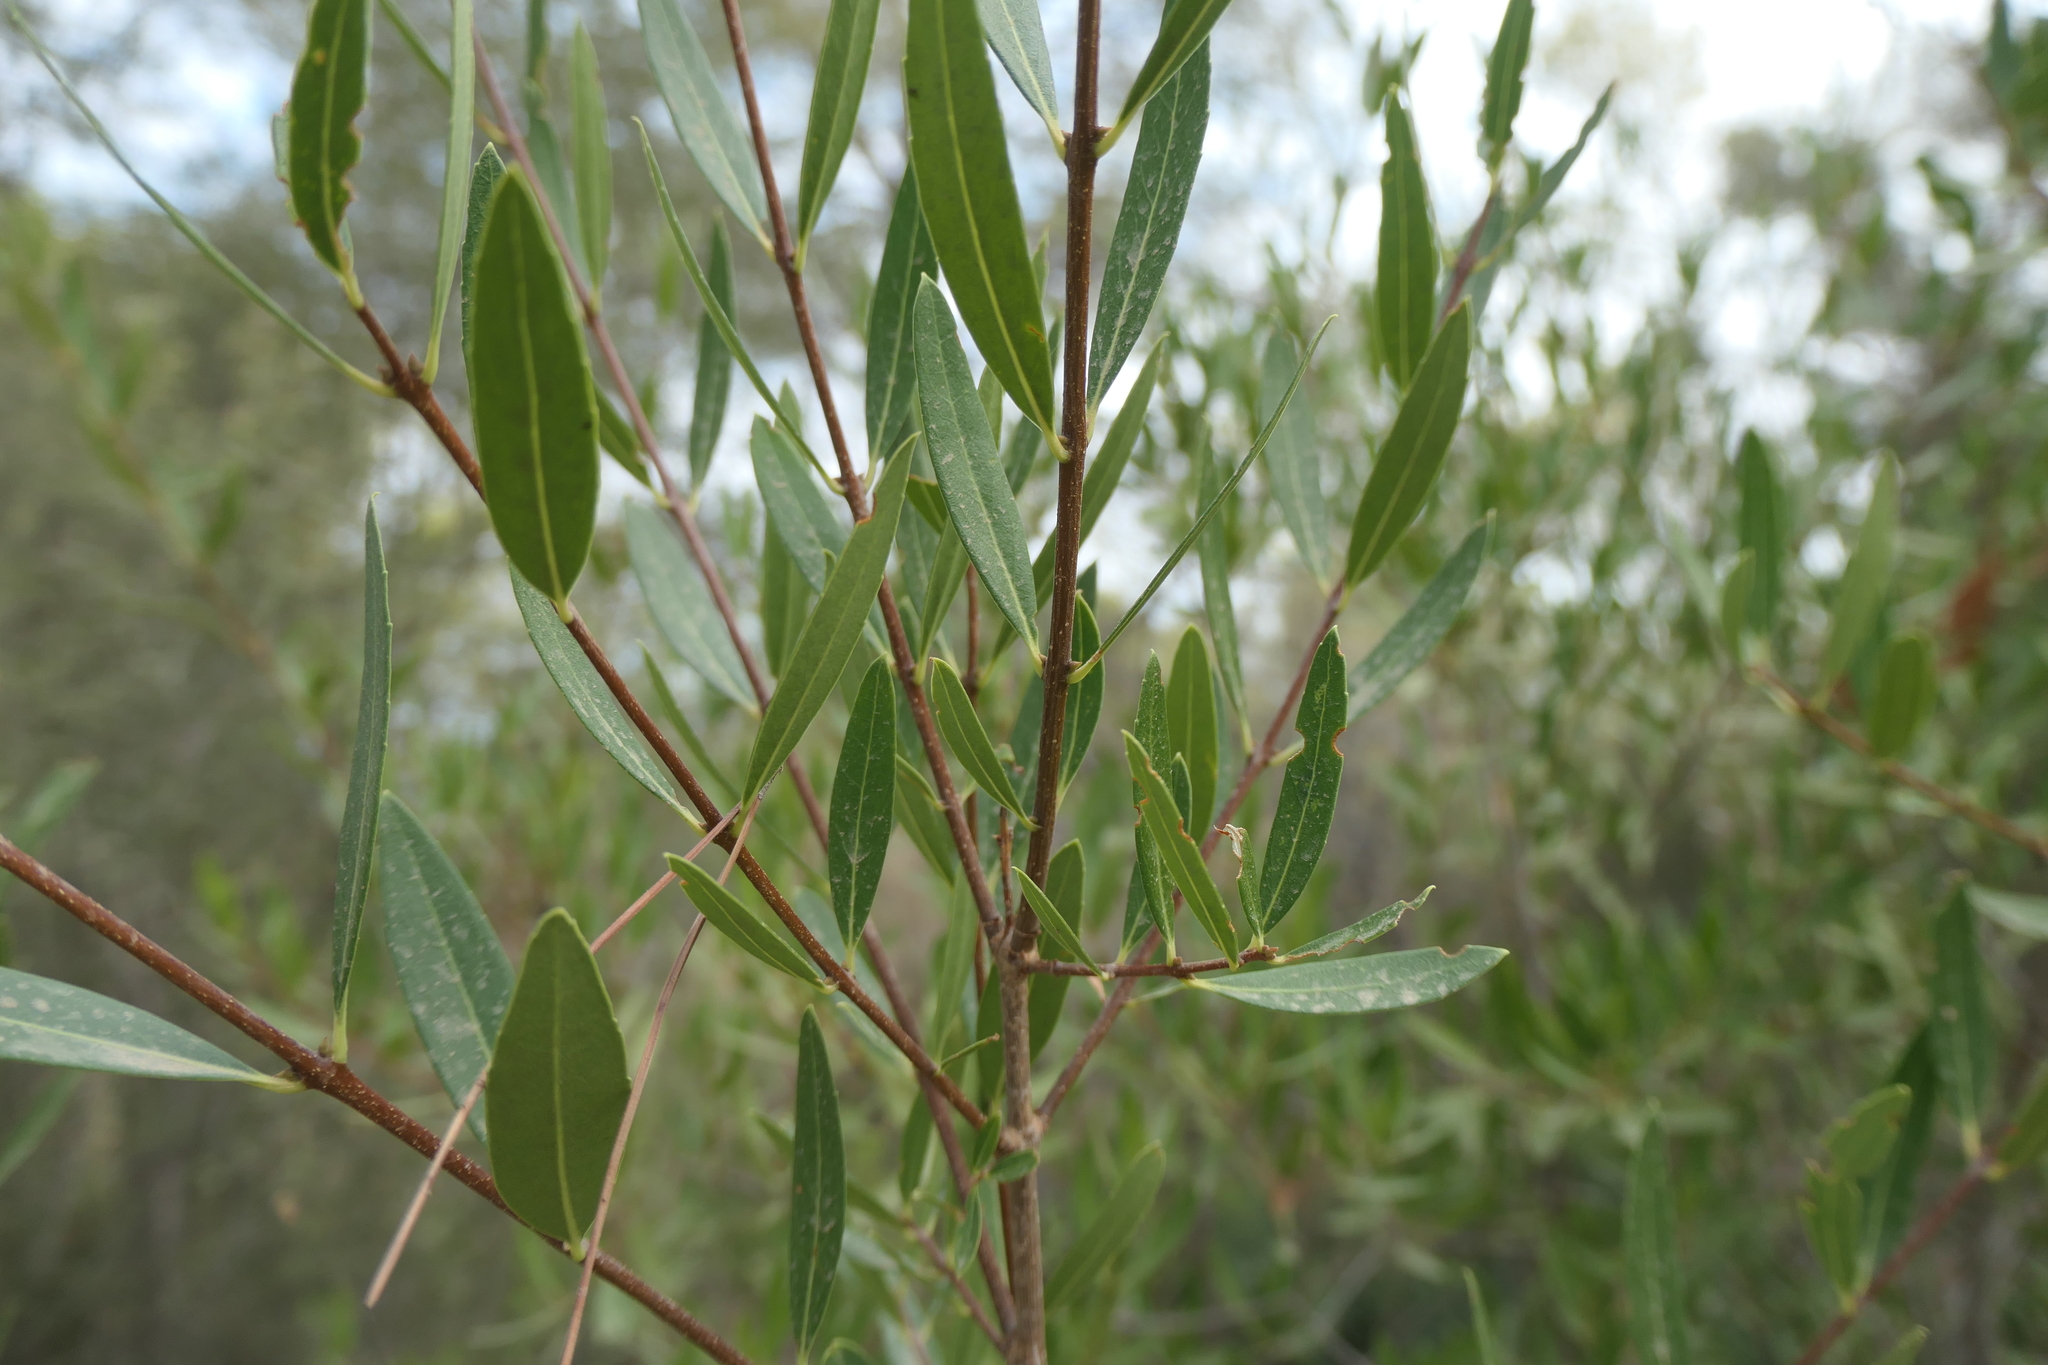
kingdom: Plantae
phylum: Tracheophyta
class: Magnoliopsida
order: Lamiales
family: Oleaceae
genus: Phillyrea
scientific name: Phillyrea angustifolia
